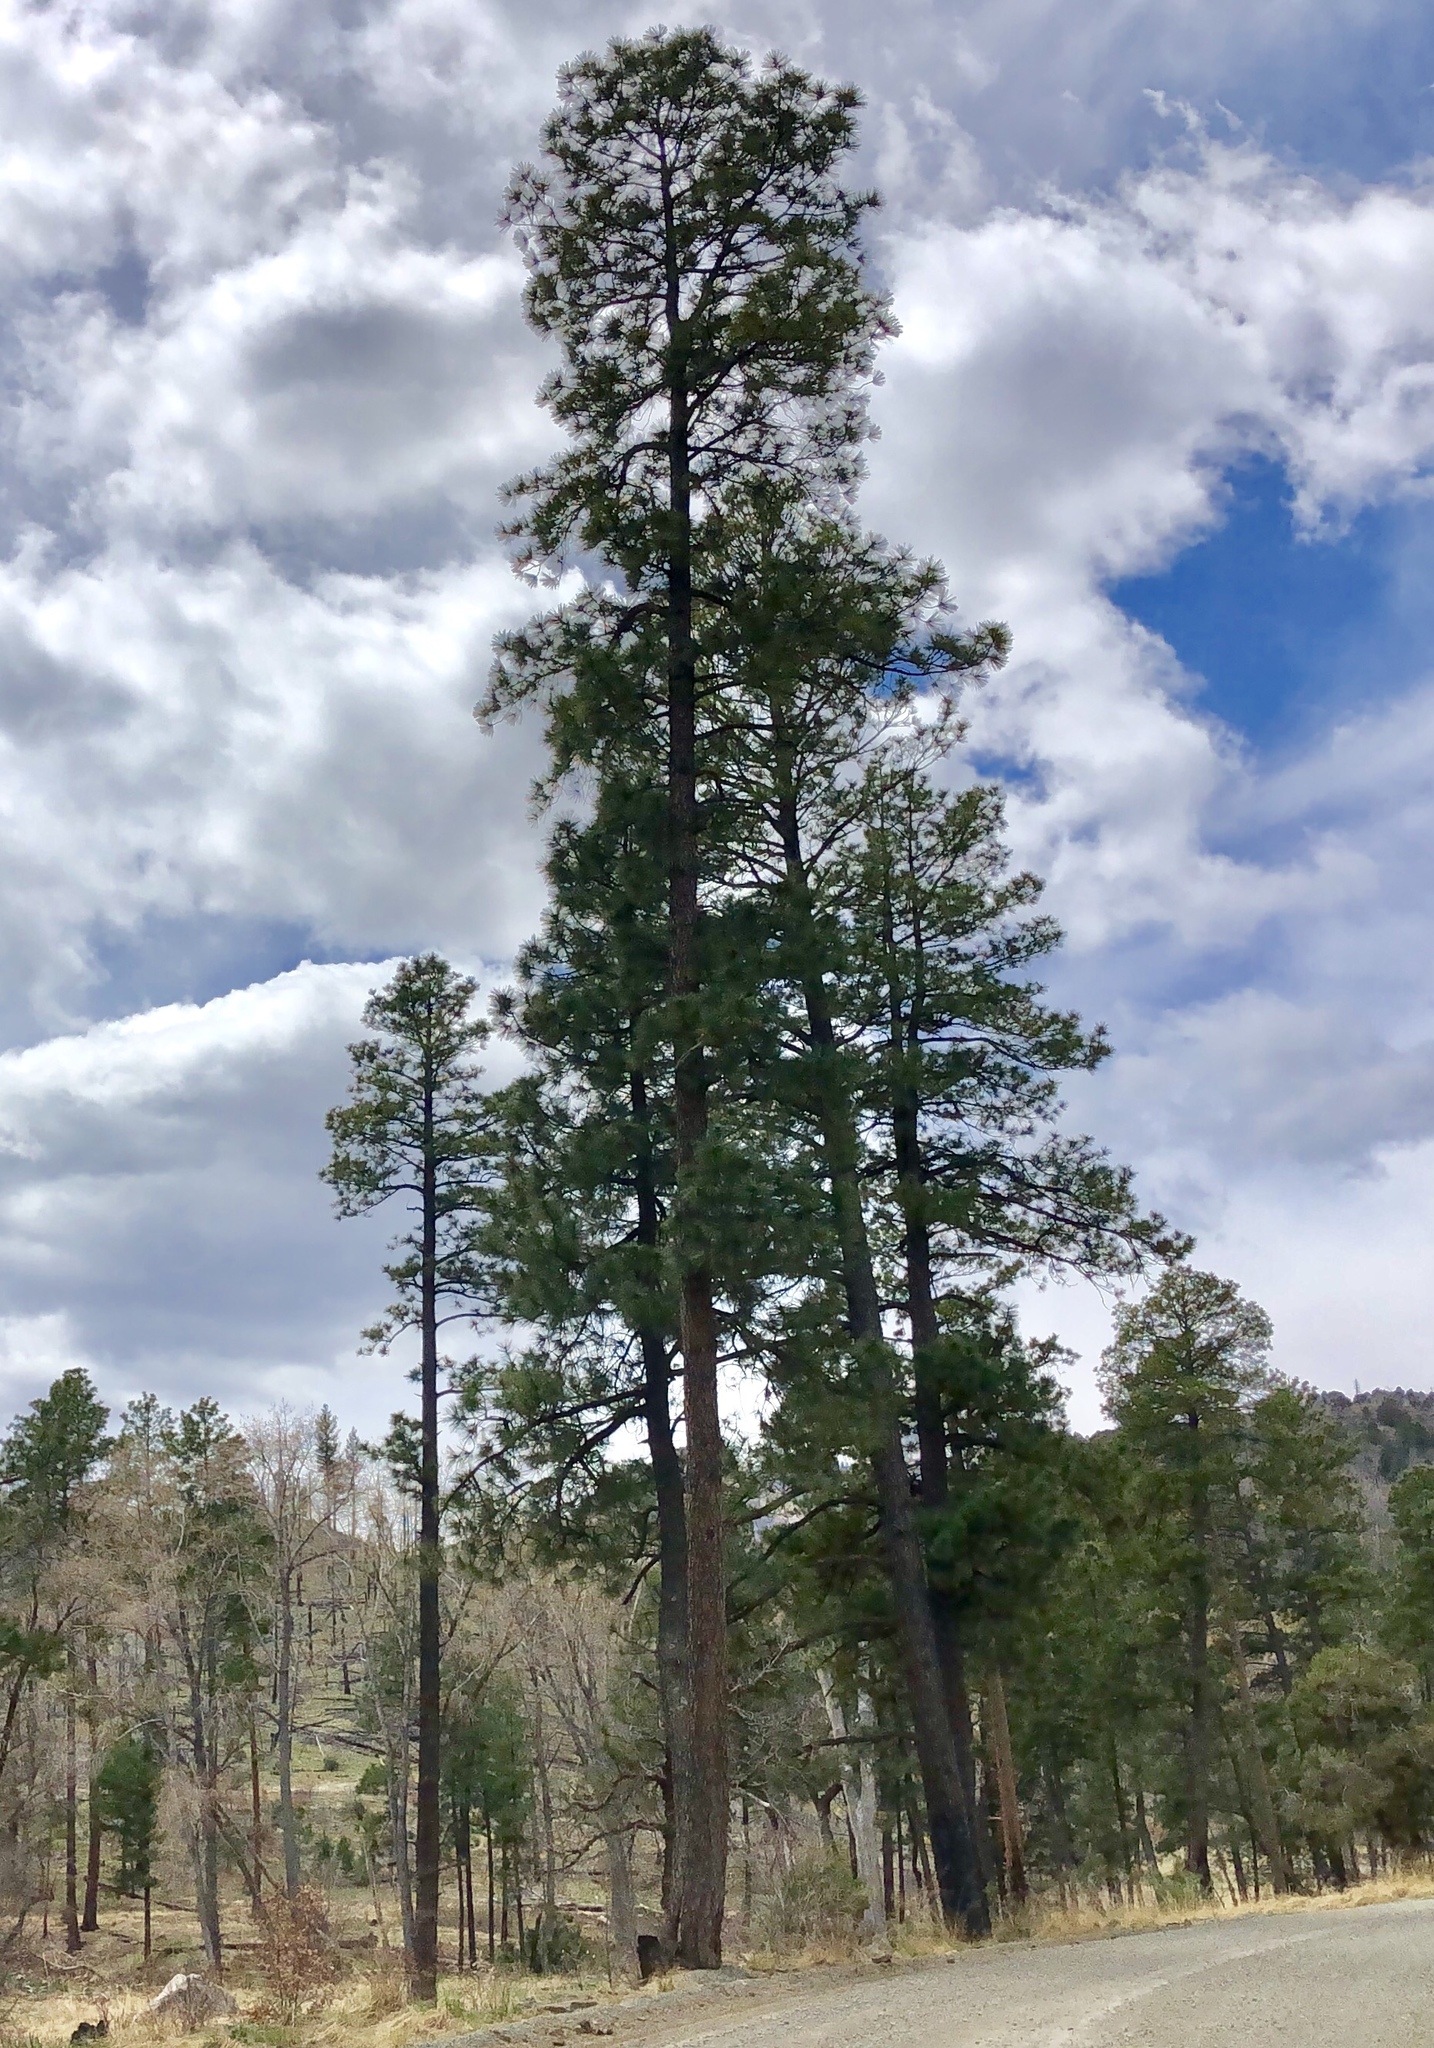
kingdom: Plantae
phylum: Tracheophyta
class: Pinopsida
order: Pinales
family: Pinaceae
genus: Pinus
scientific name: Pinus ponderosa
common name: Western yellow-pine
